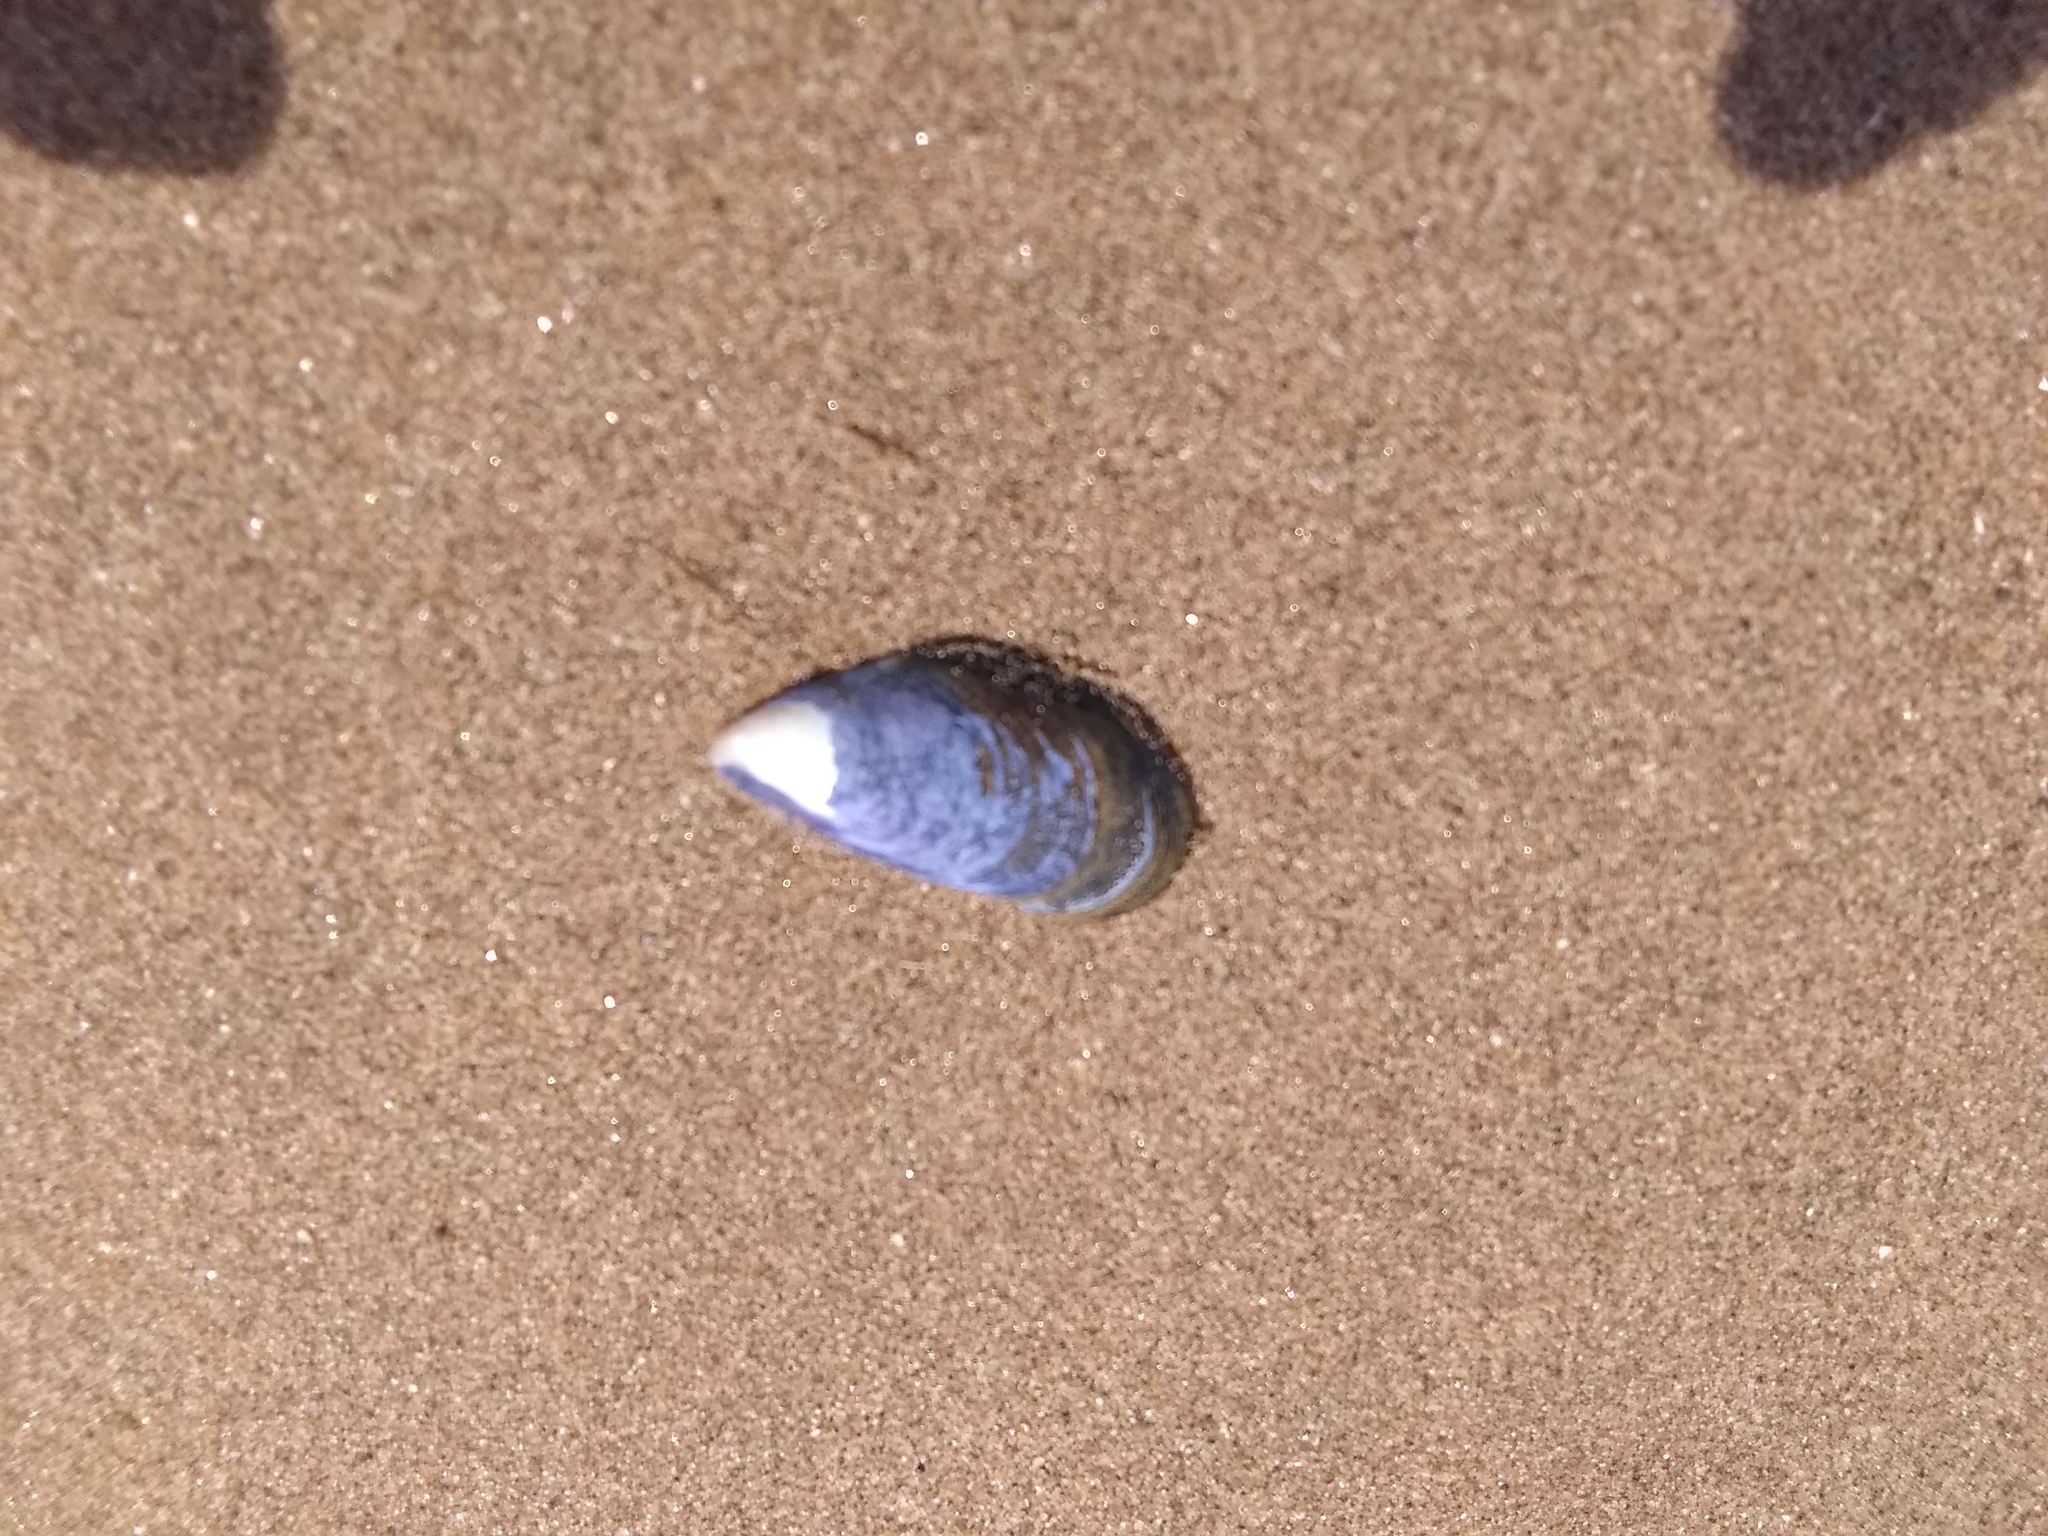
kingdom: Animalia
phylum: Mollusca
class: Bivalvia
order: Mytilida
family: Mytilidae
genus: Mytilus
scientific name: Mytilus edulis
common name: Blue mussel
